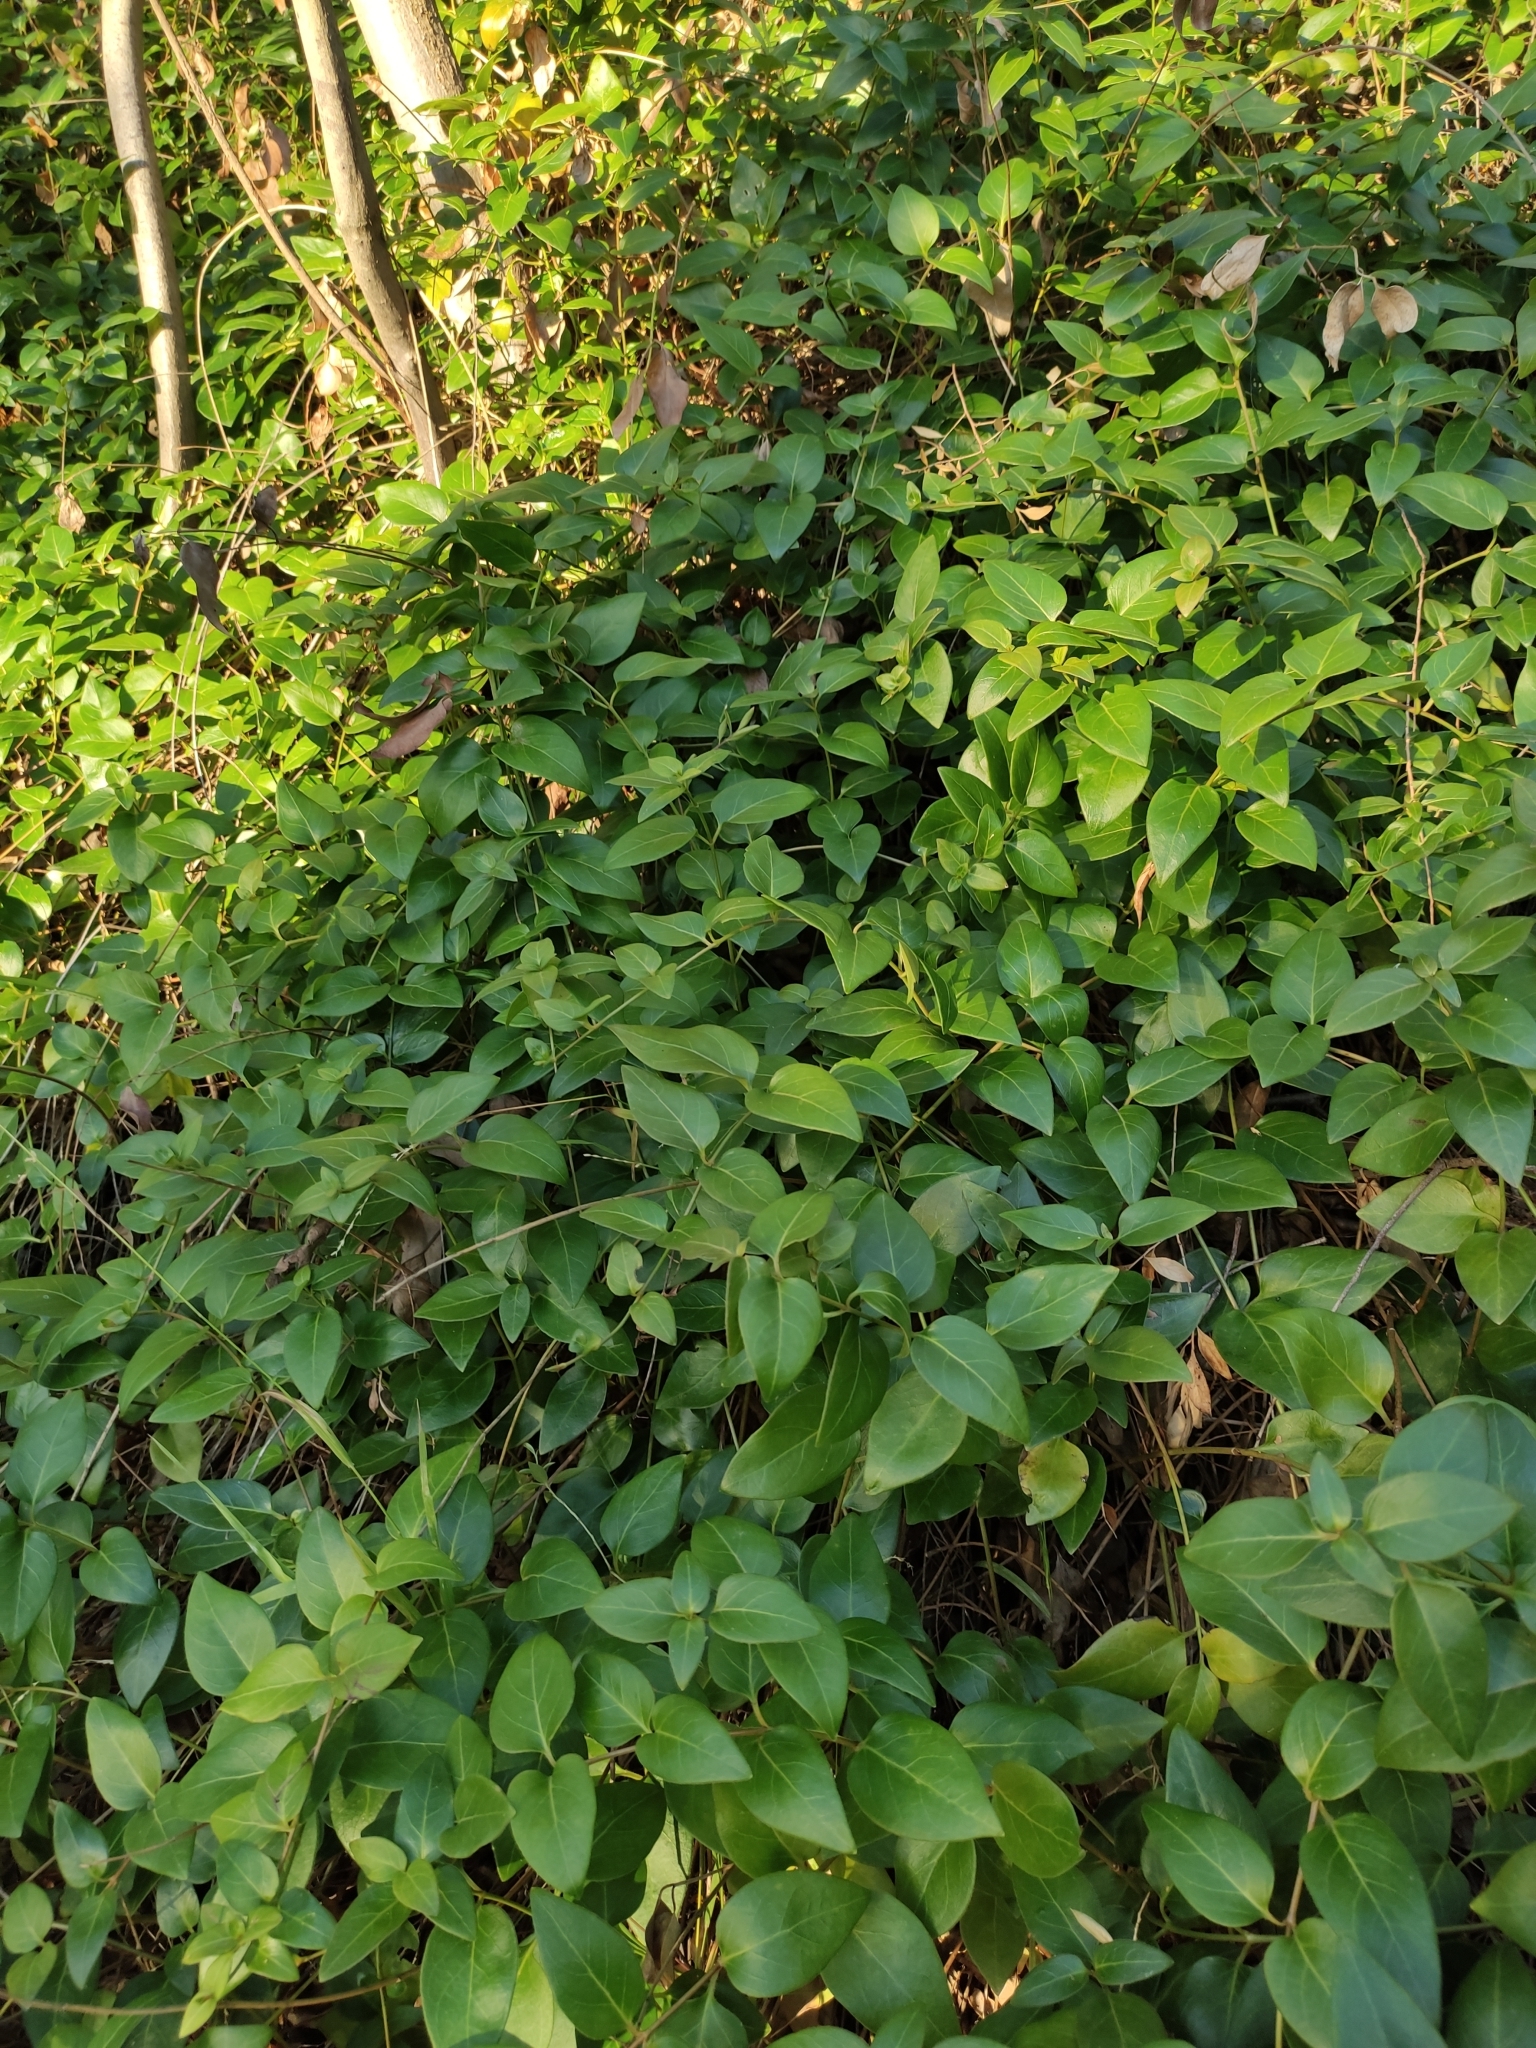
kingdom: Plantae
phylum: Tracheophyta
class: Magnoliopsida
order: Gentianales
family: Apocynaceae
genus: Vinca
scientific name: Vinca major
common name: Greater periwinkle
